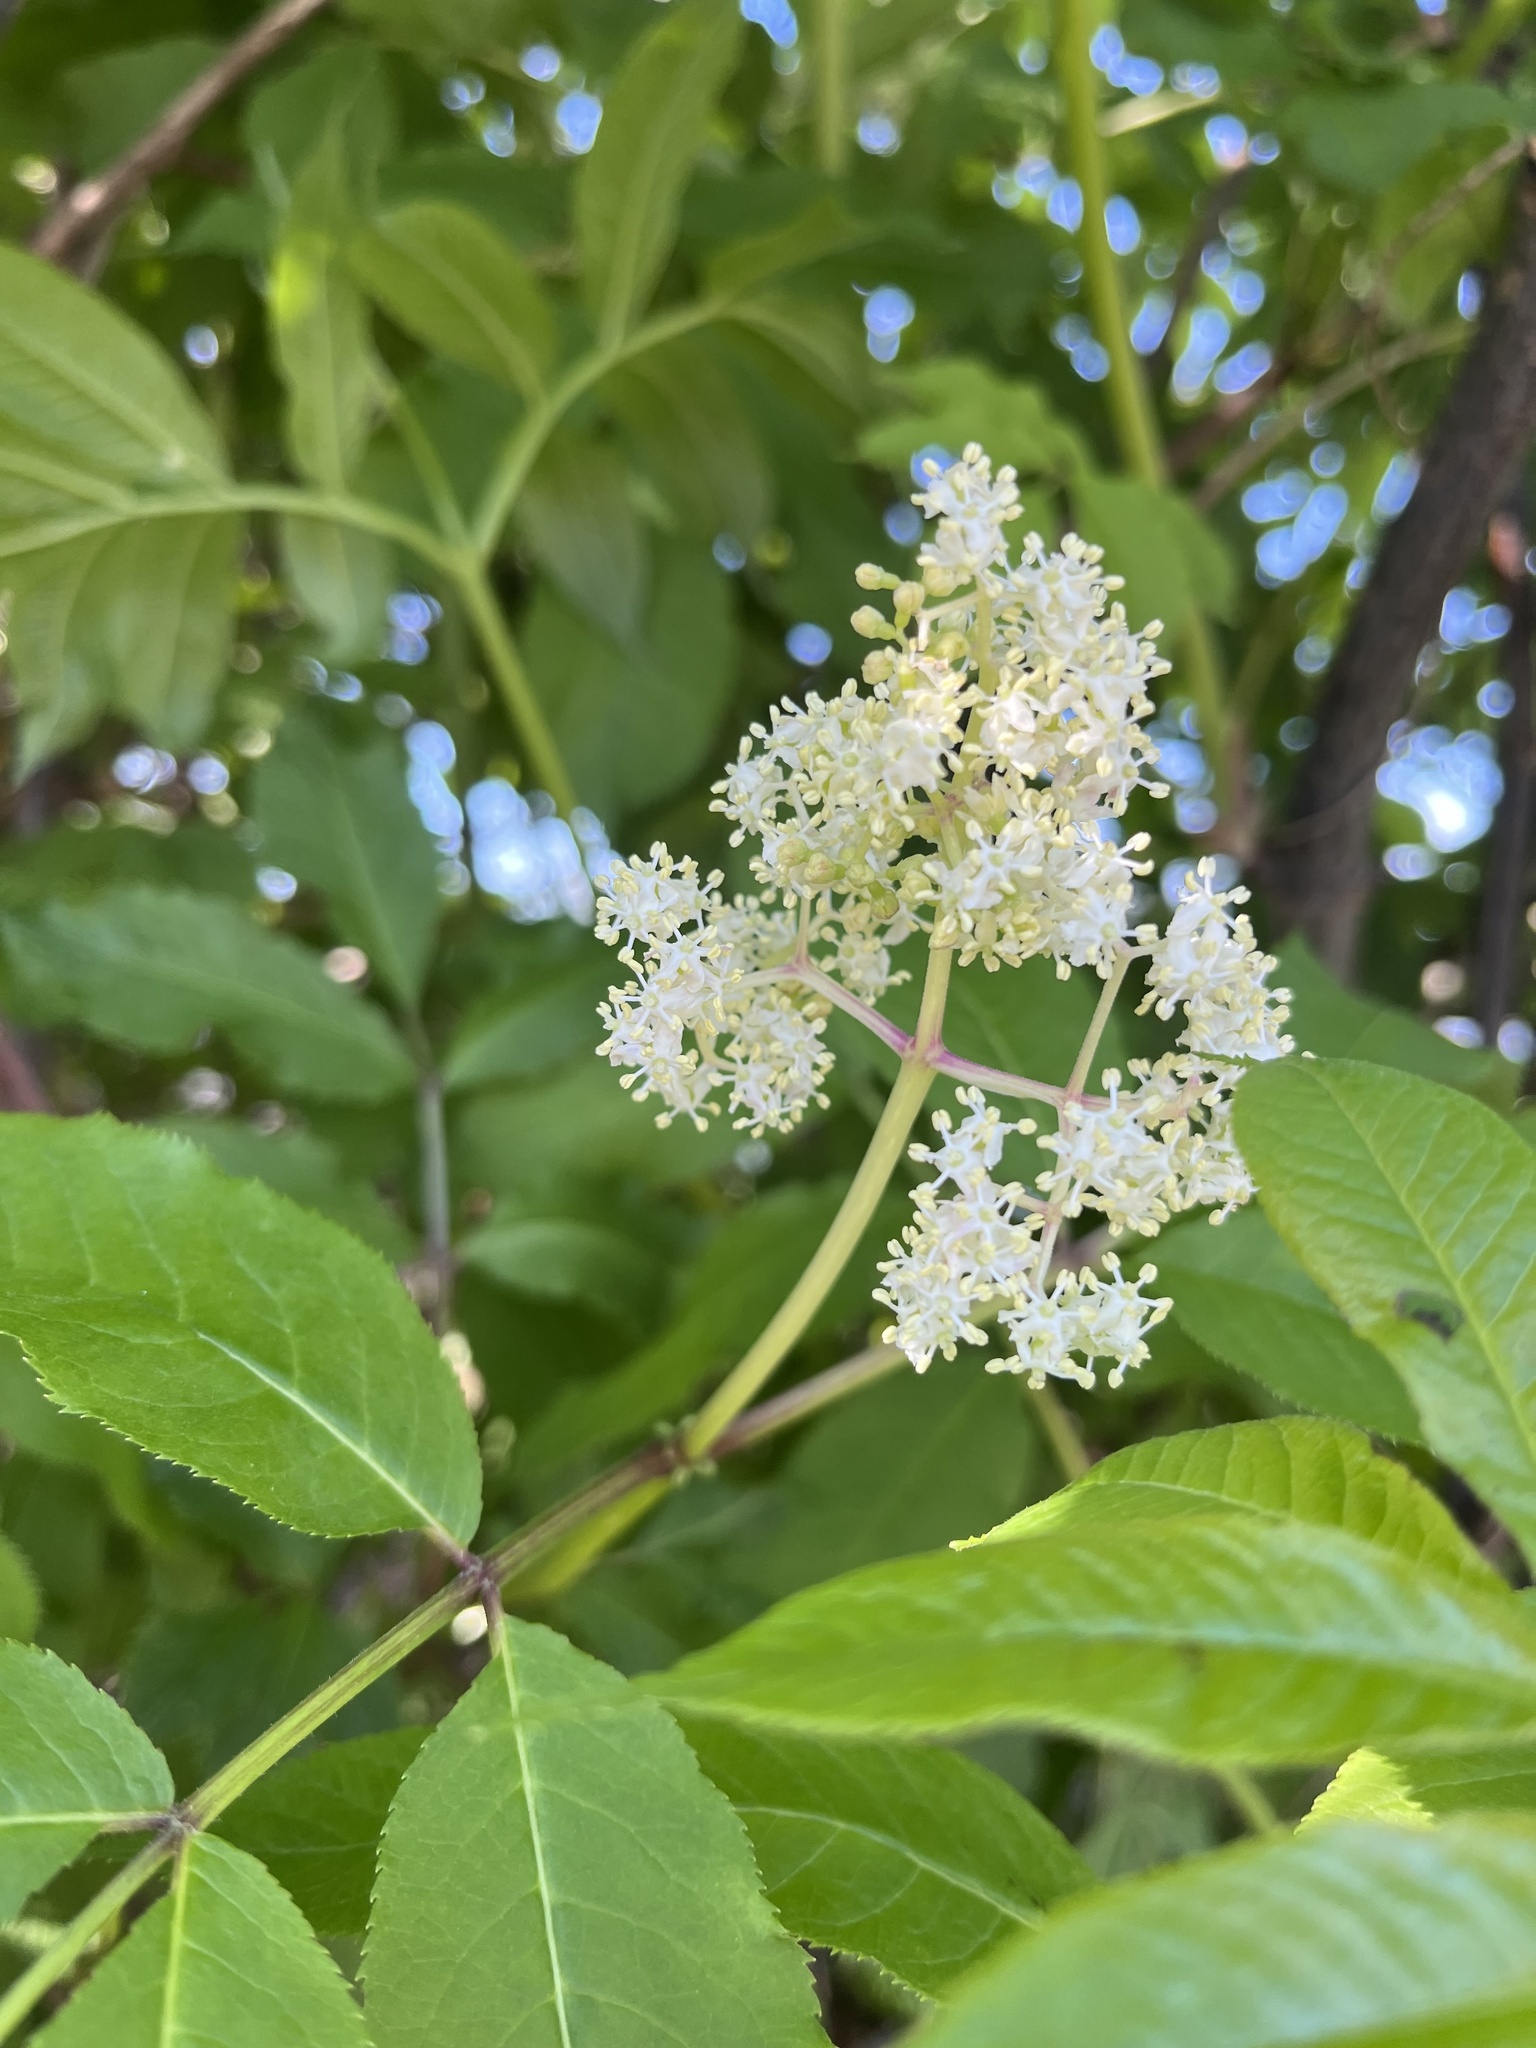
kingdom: Plantae
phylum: Tracheophyta
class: Magnoliopsida
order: Dipsacales
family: Viburnaceae
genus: Sambucus
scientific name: Sambucus racemosa
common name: Red-berried elder
